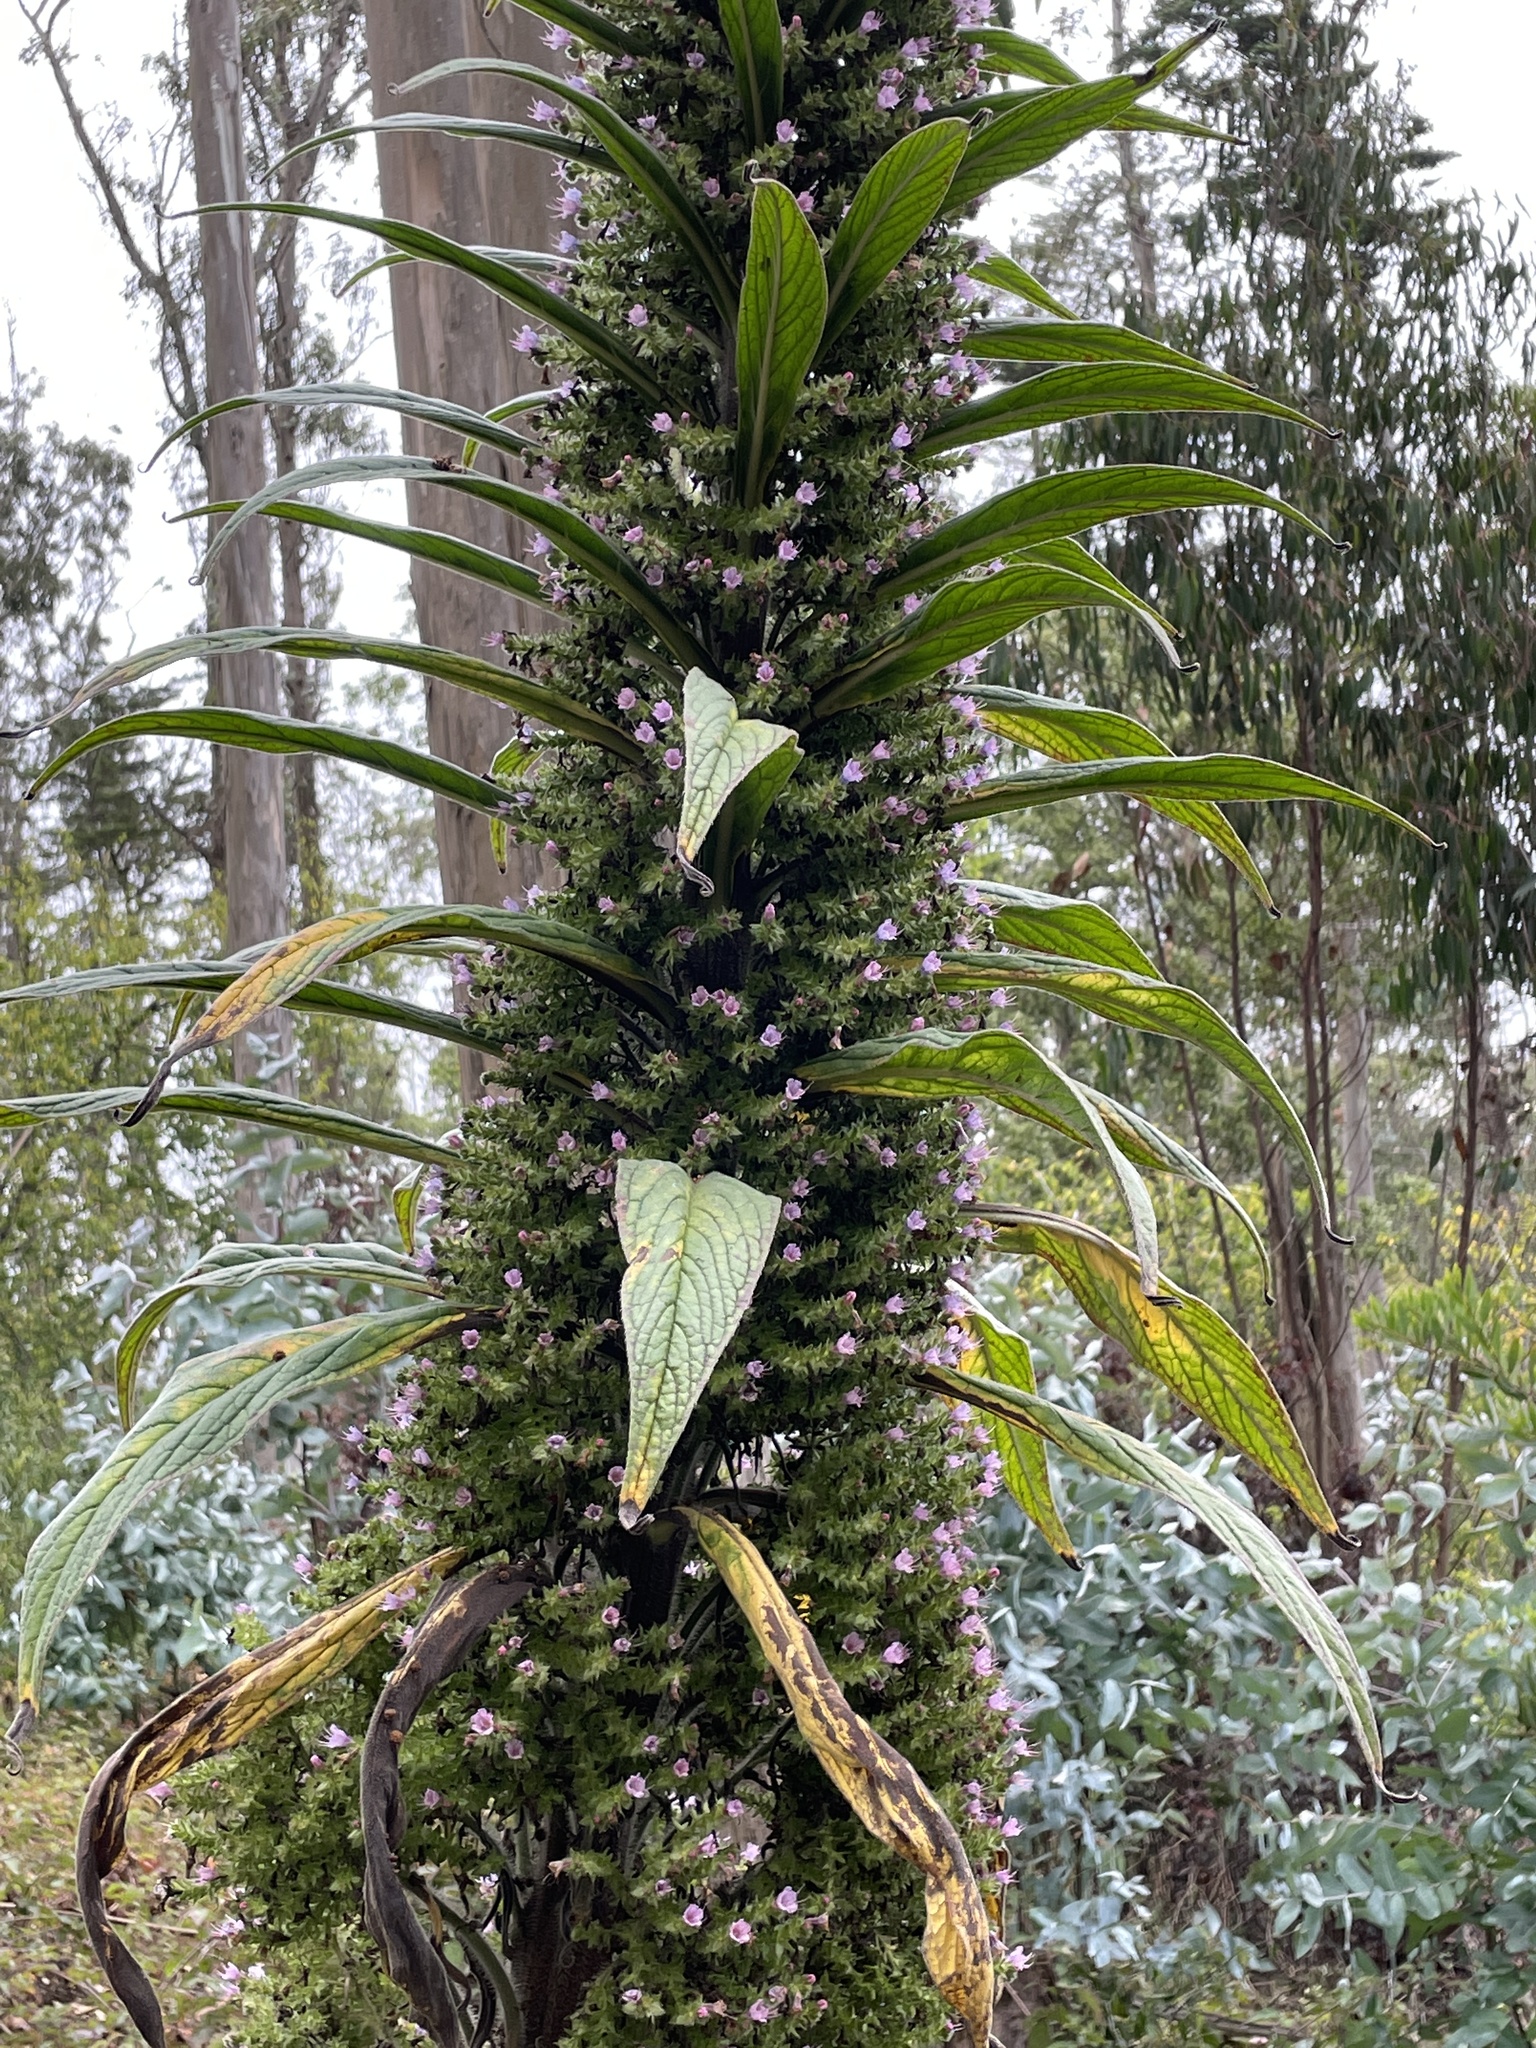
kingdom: Plantae
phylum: Tracheophyta
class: Magnoliopsida
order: Boraginales
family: Boraginaceae
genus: Echium
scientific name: Echium pininana
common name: Giant viper's-bugloss
